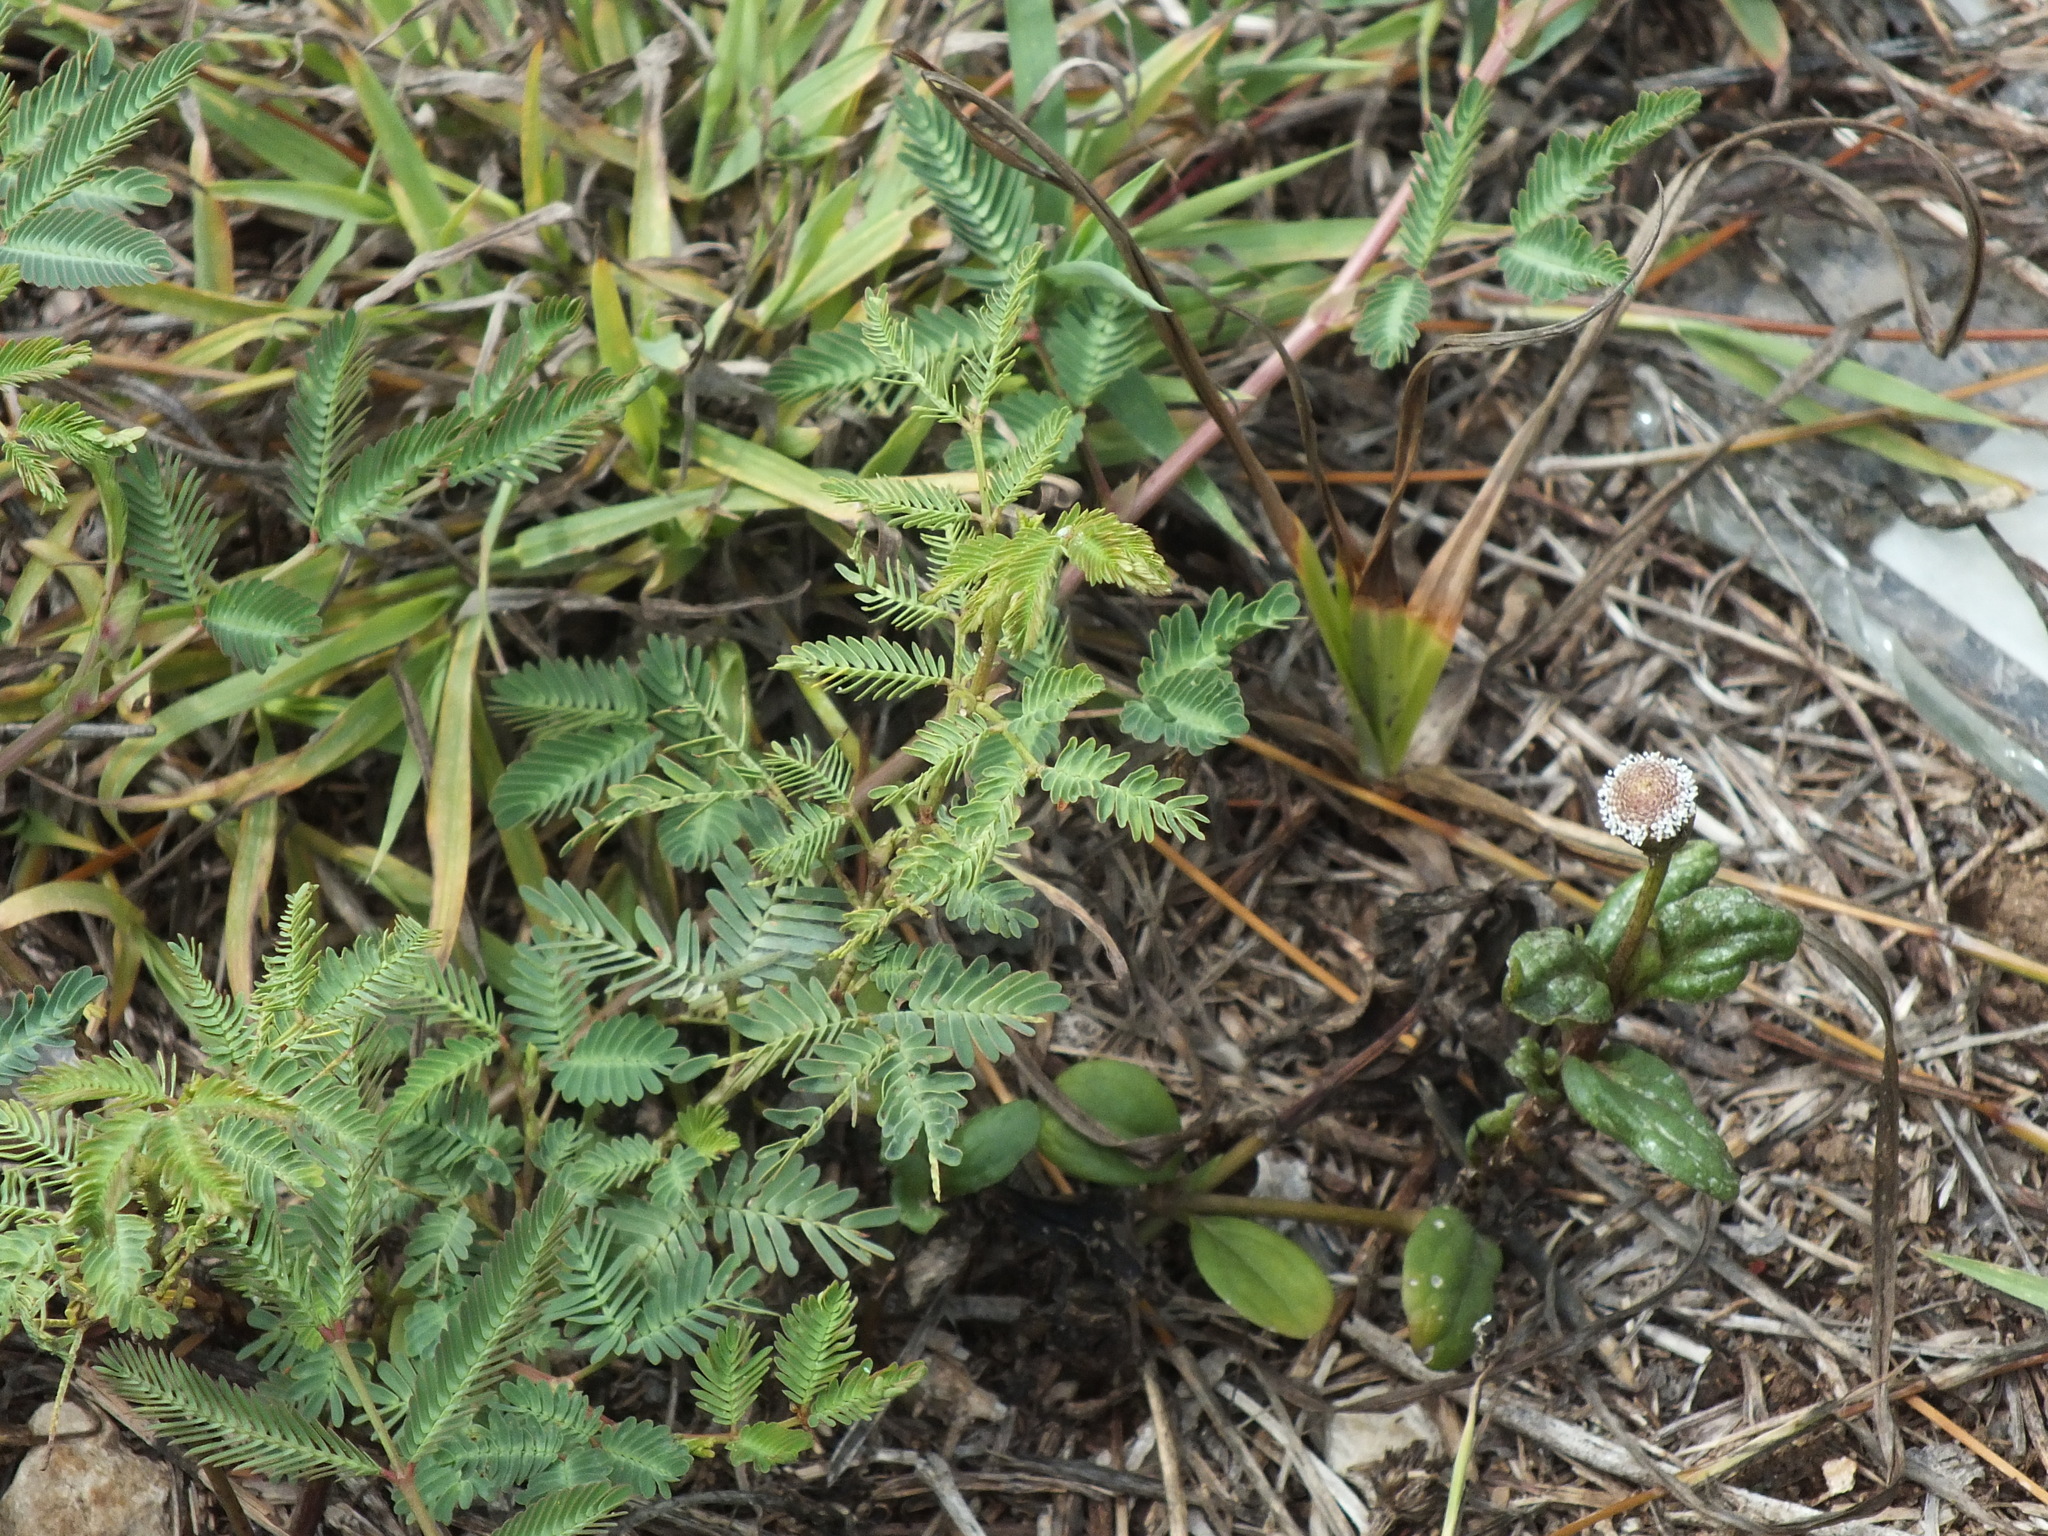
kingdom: Plantae
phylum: Tracheophyta
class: Magnoliopsida
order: Asterales
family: Asteraceae
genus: Spilanthes
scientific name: Spilanthes urens
